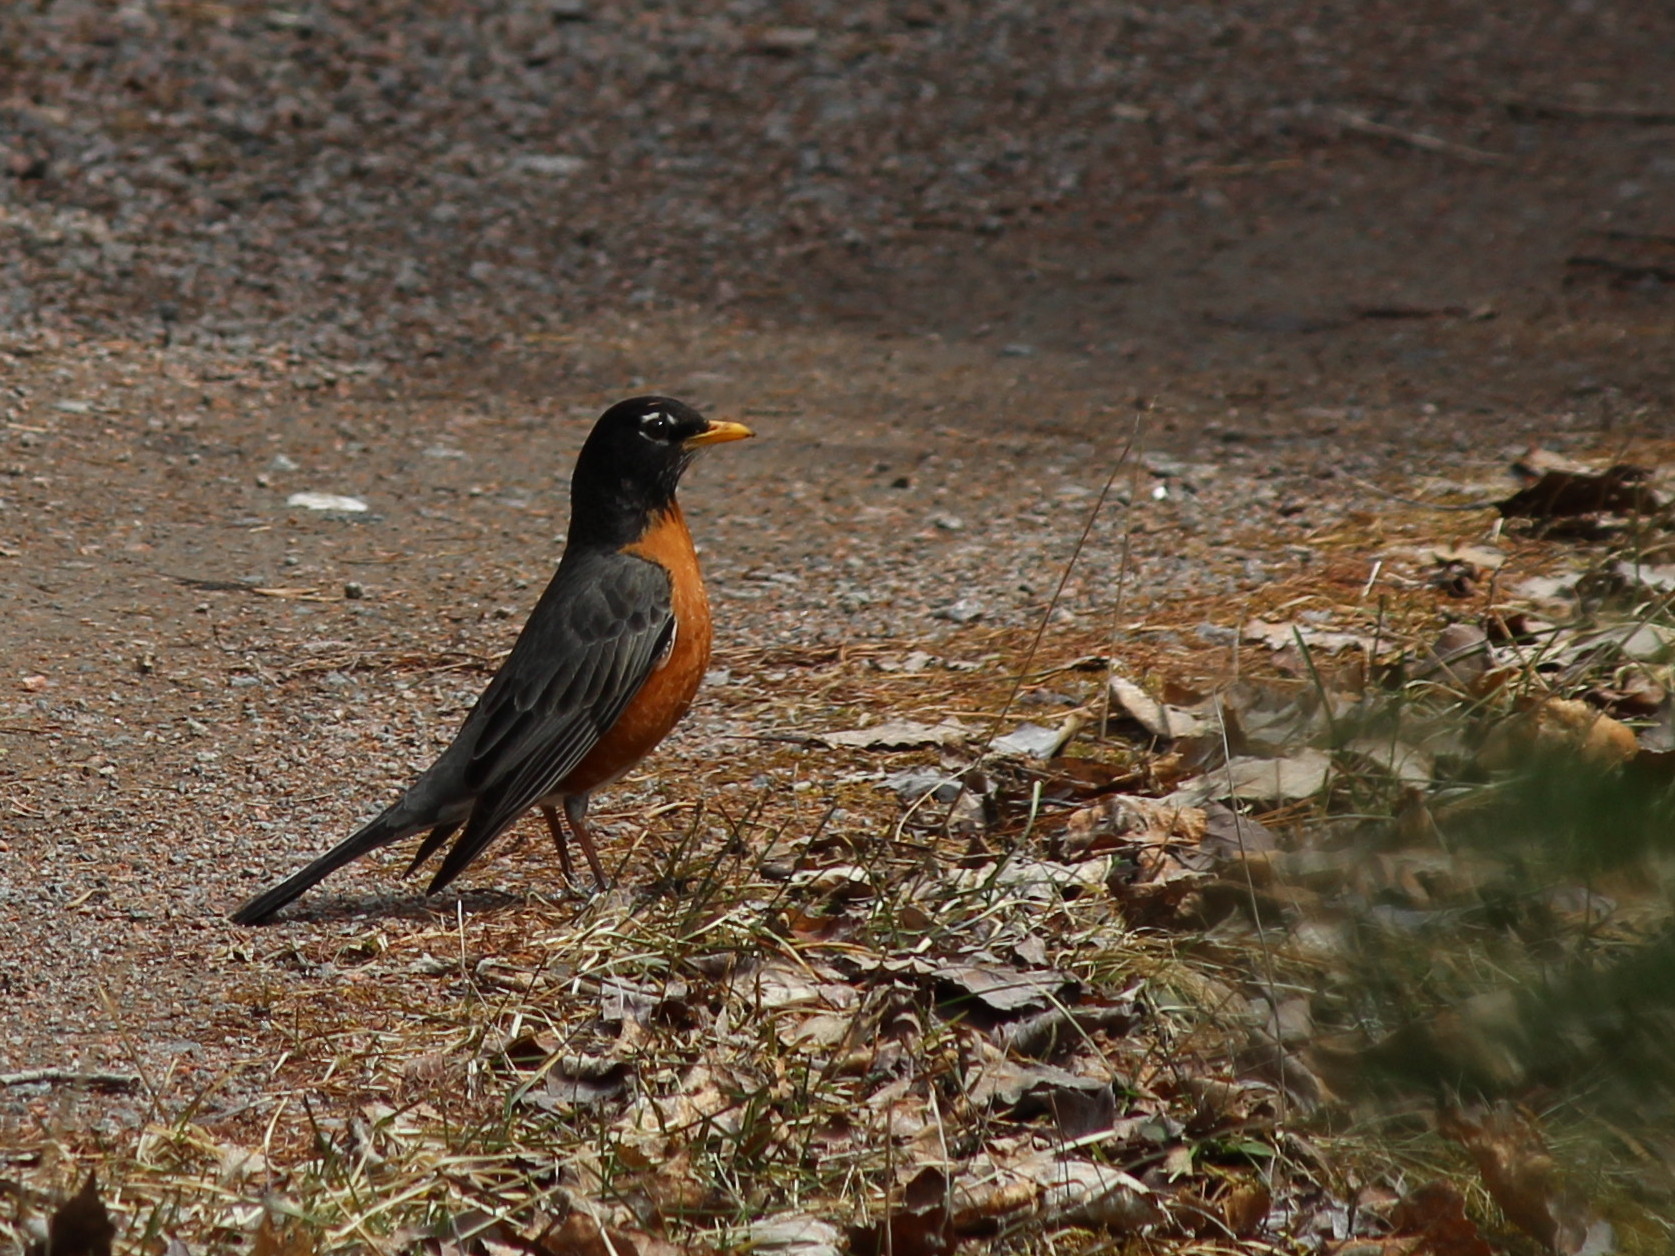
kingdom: Animalia
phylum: Chordata
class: Aves
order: Passeriformes
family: Turdidae
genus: Turdus
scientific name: Turdus migratorius
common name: American robin
